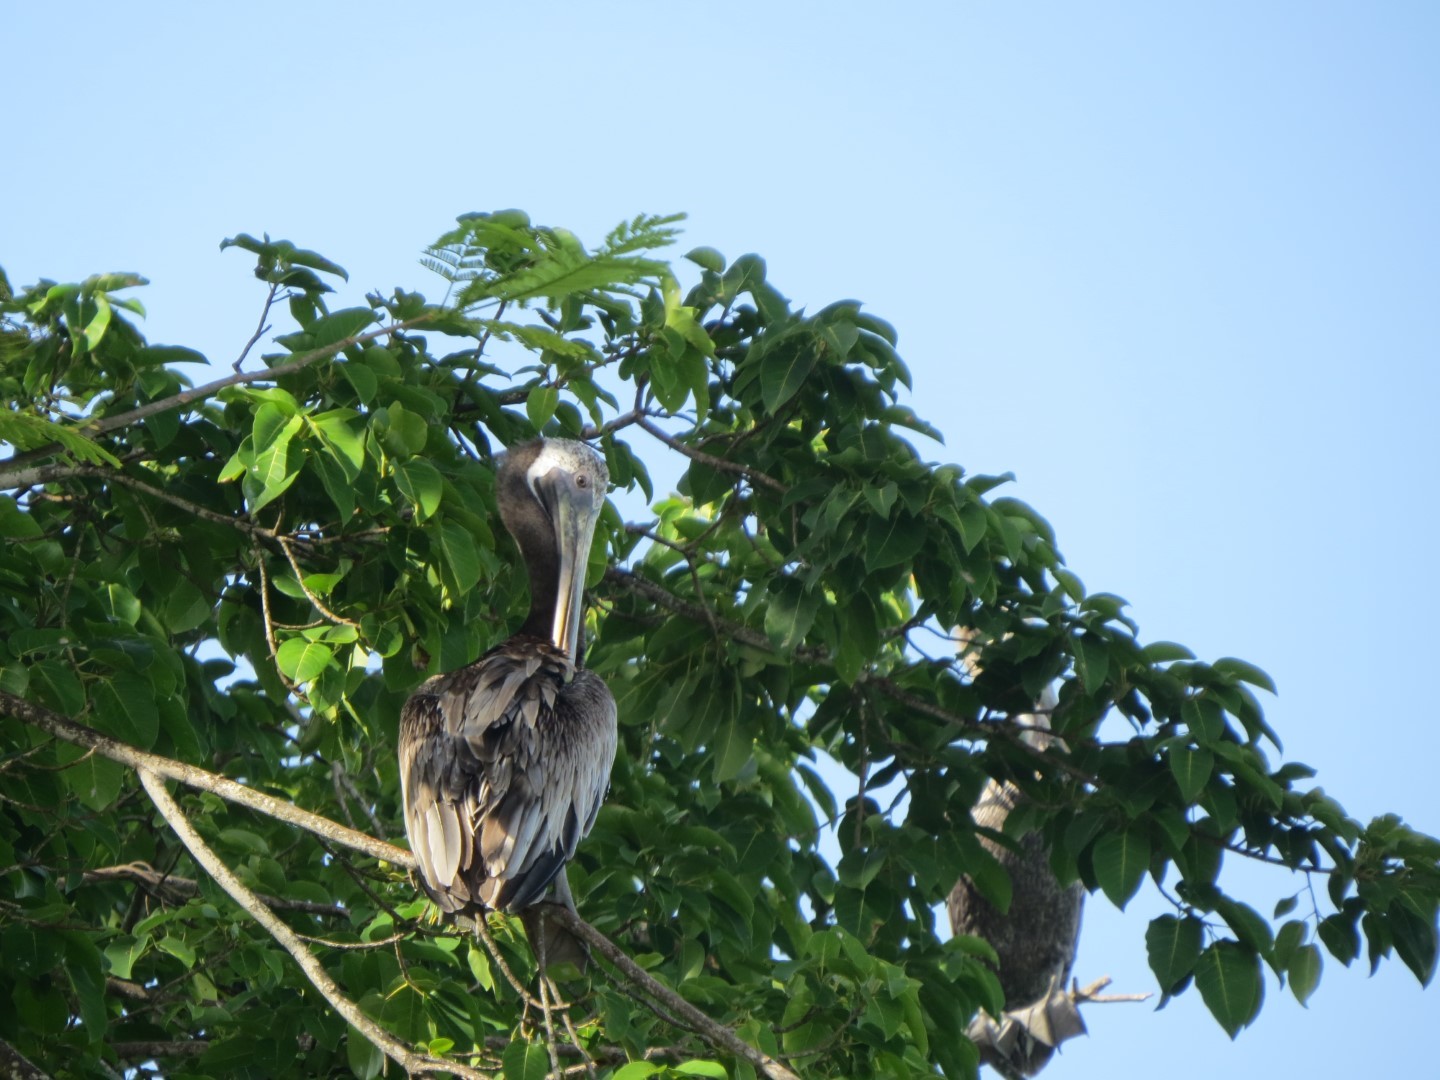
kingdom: Animalia
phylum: Chordata
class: Aves
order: Pelecaniformes
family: Pelecanidae
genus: Pelecanus
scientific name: Pelecanus occidentalis
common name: Brown pelican
